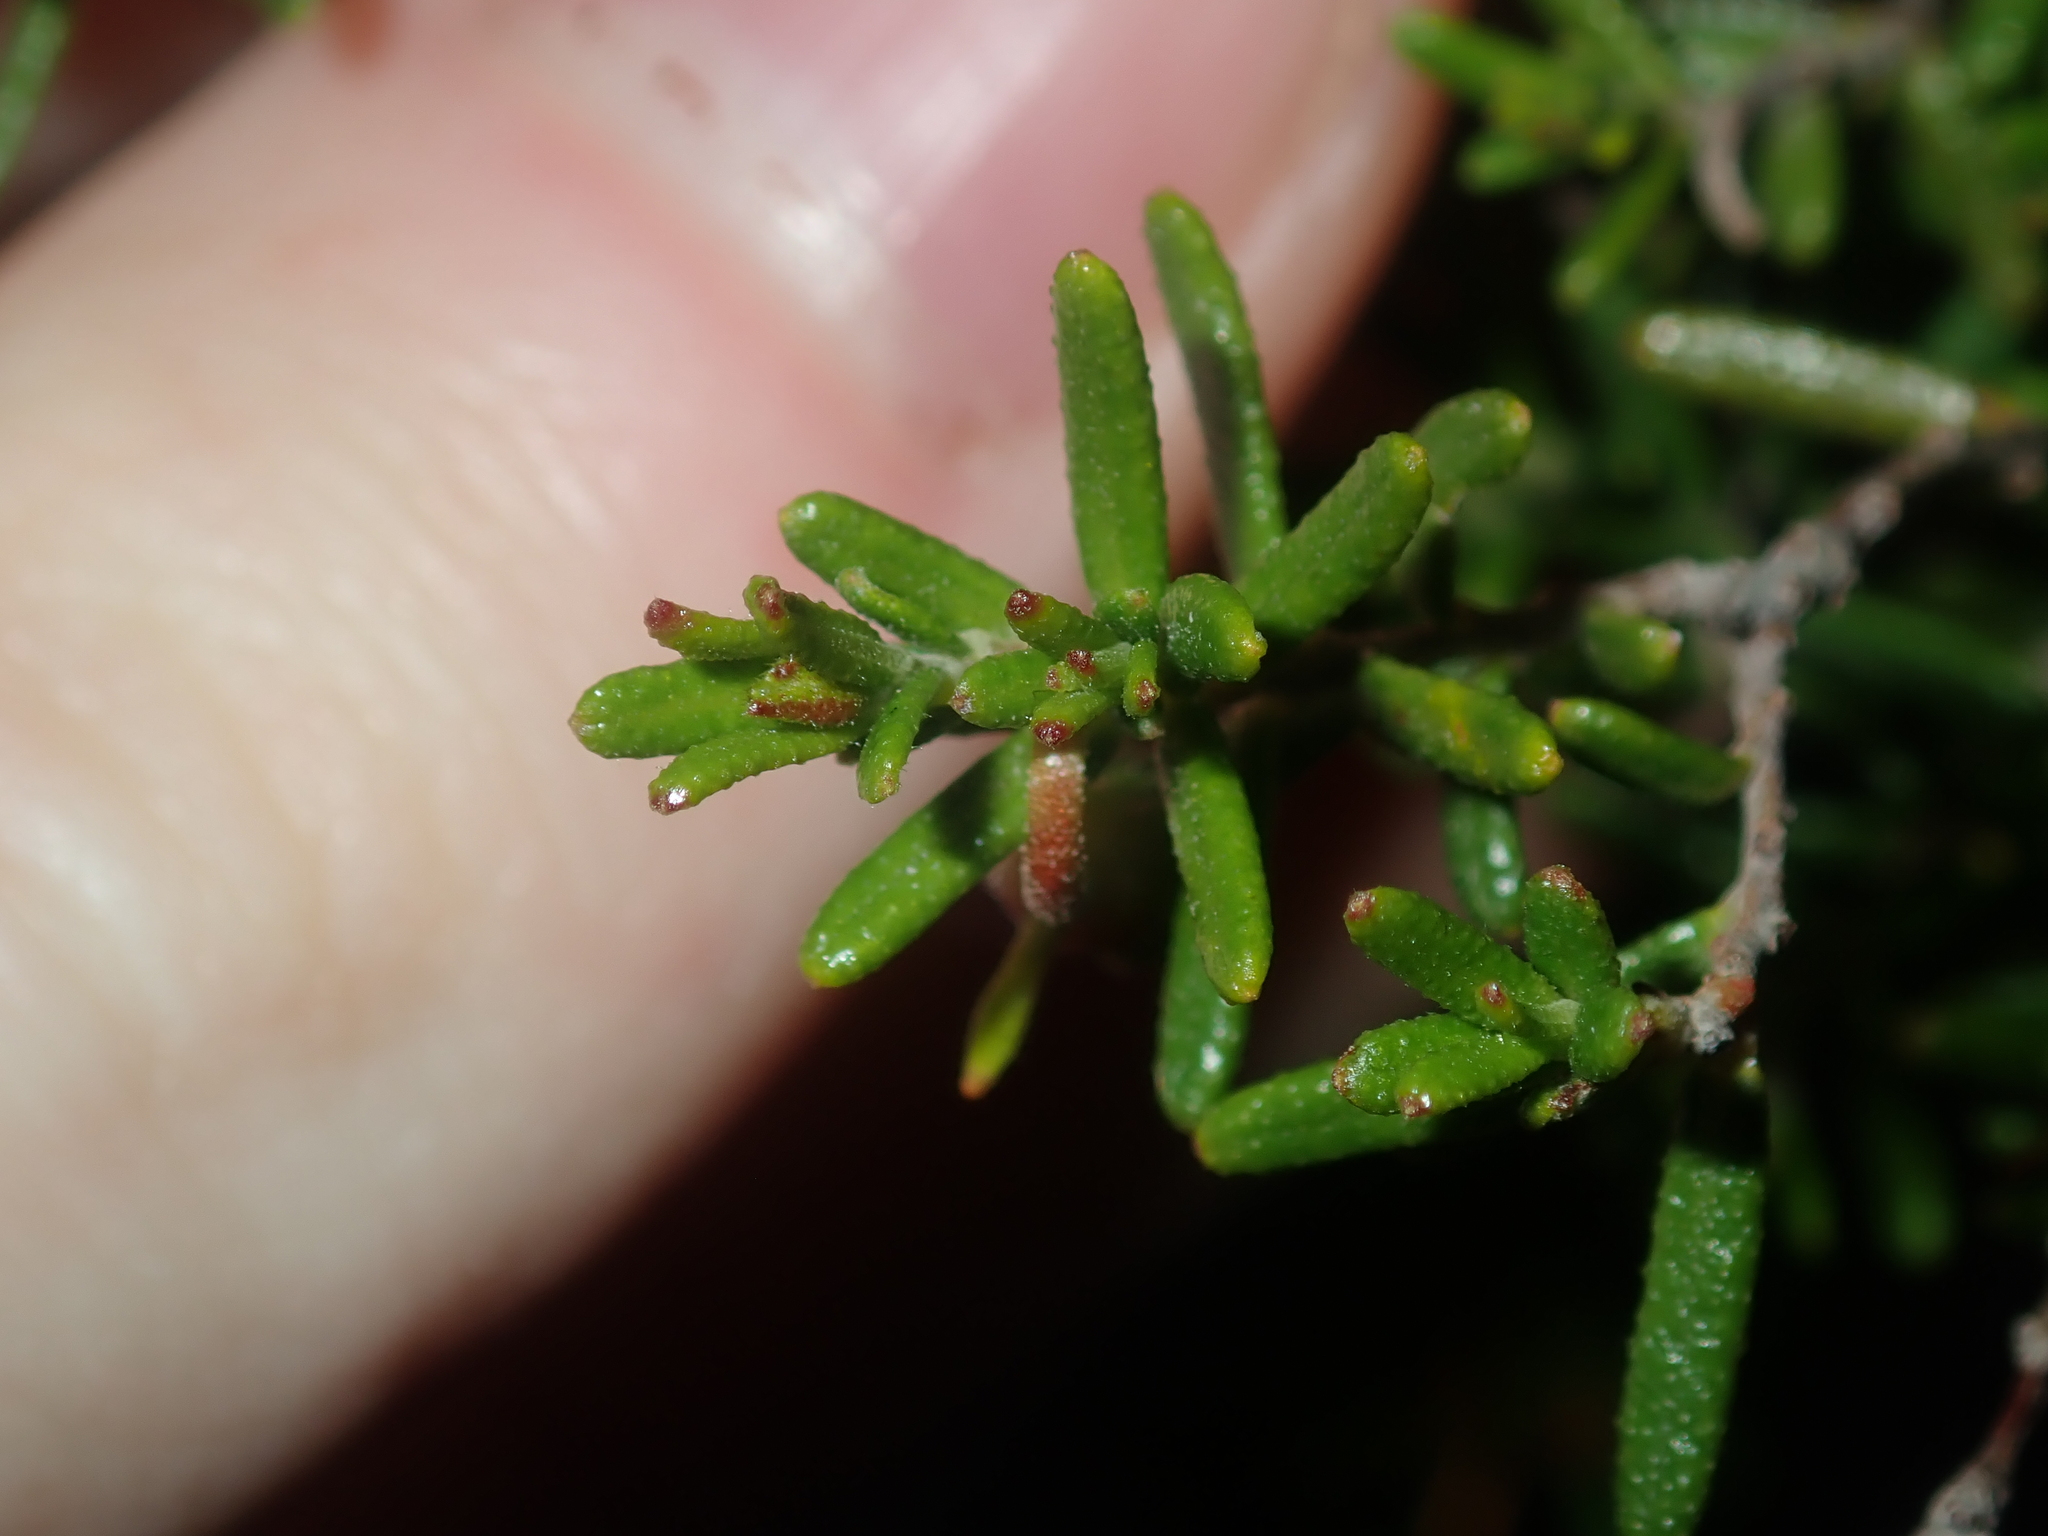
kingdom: Plantae
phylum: Tracheophyta
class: Magnoliopsida
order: Dilleniales
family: Dilleniaceae
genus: Hibbertia
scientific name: Hibbertia hypericoides
